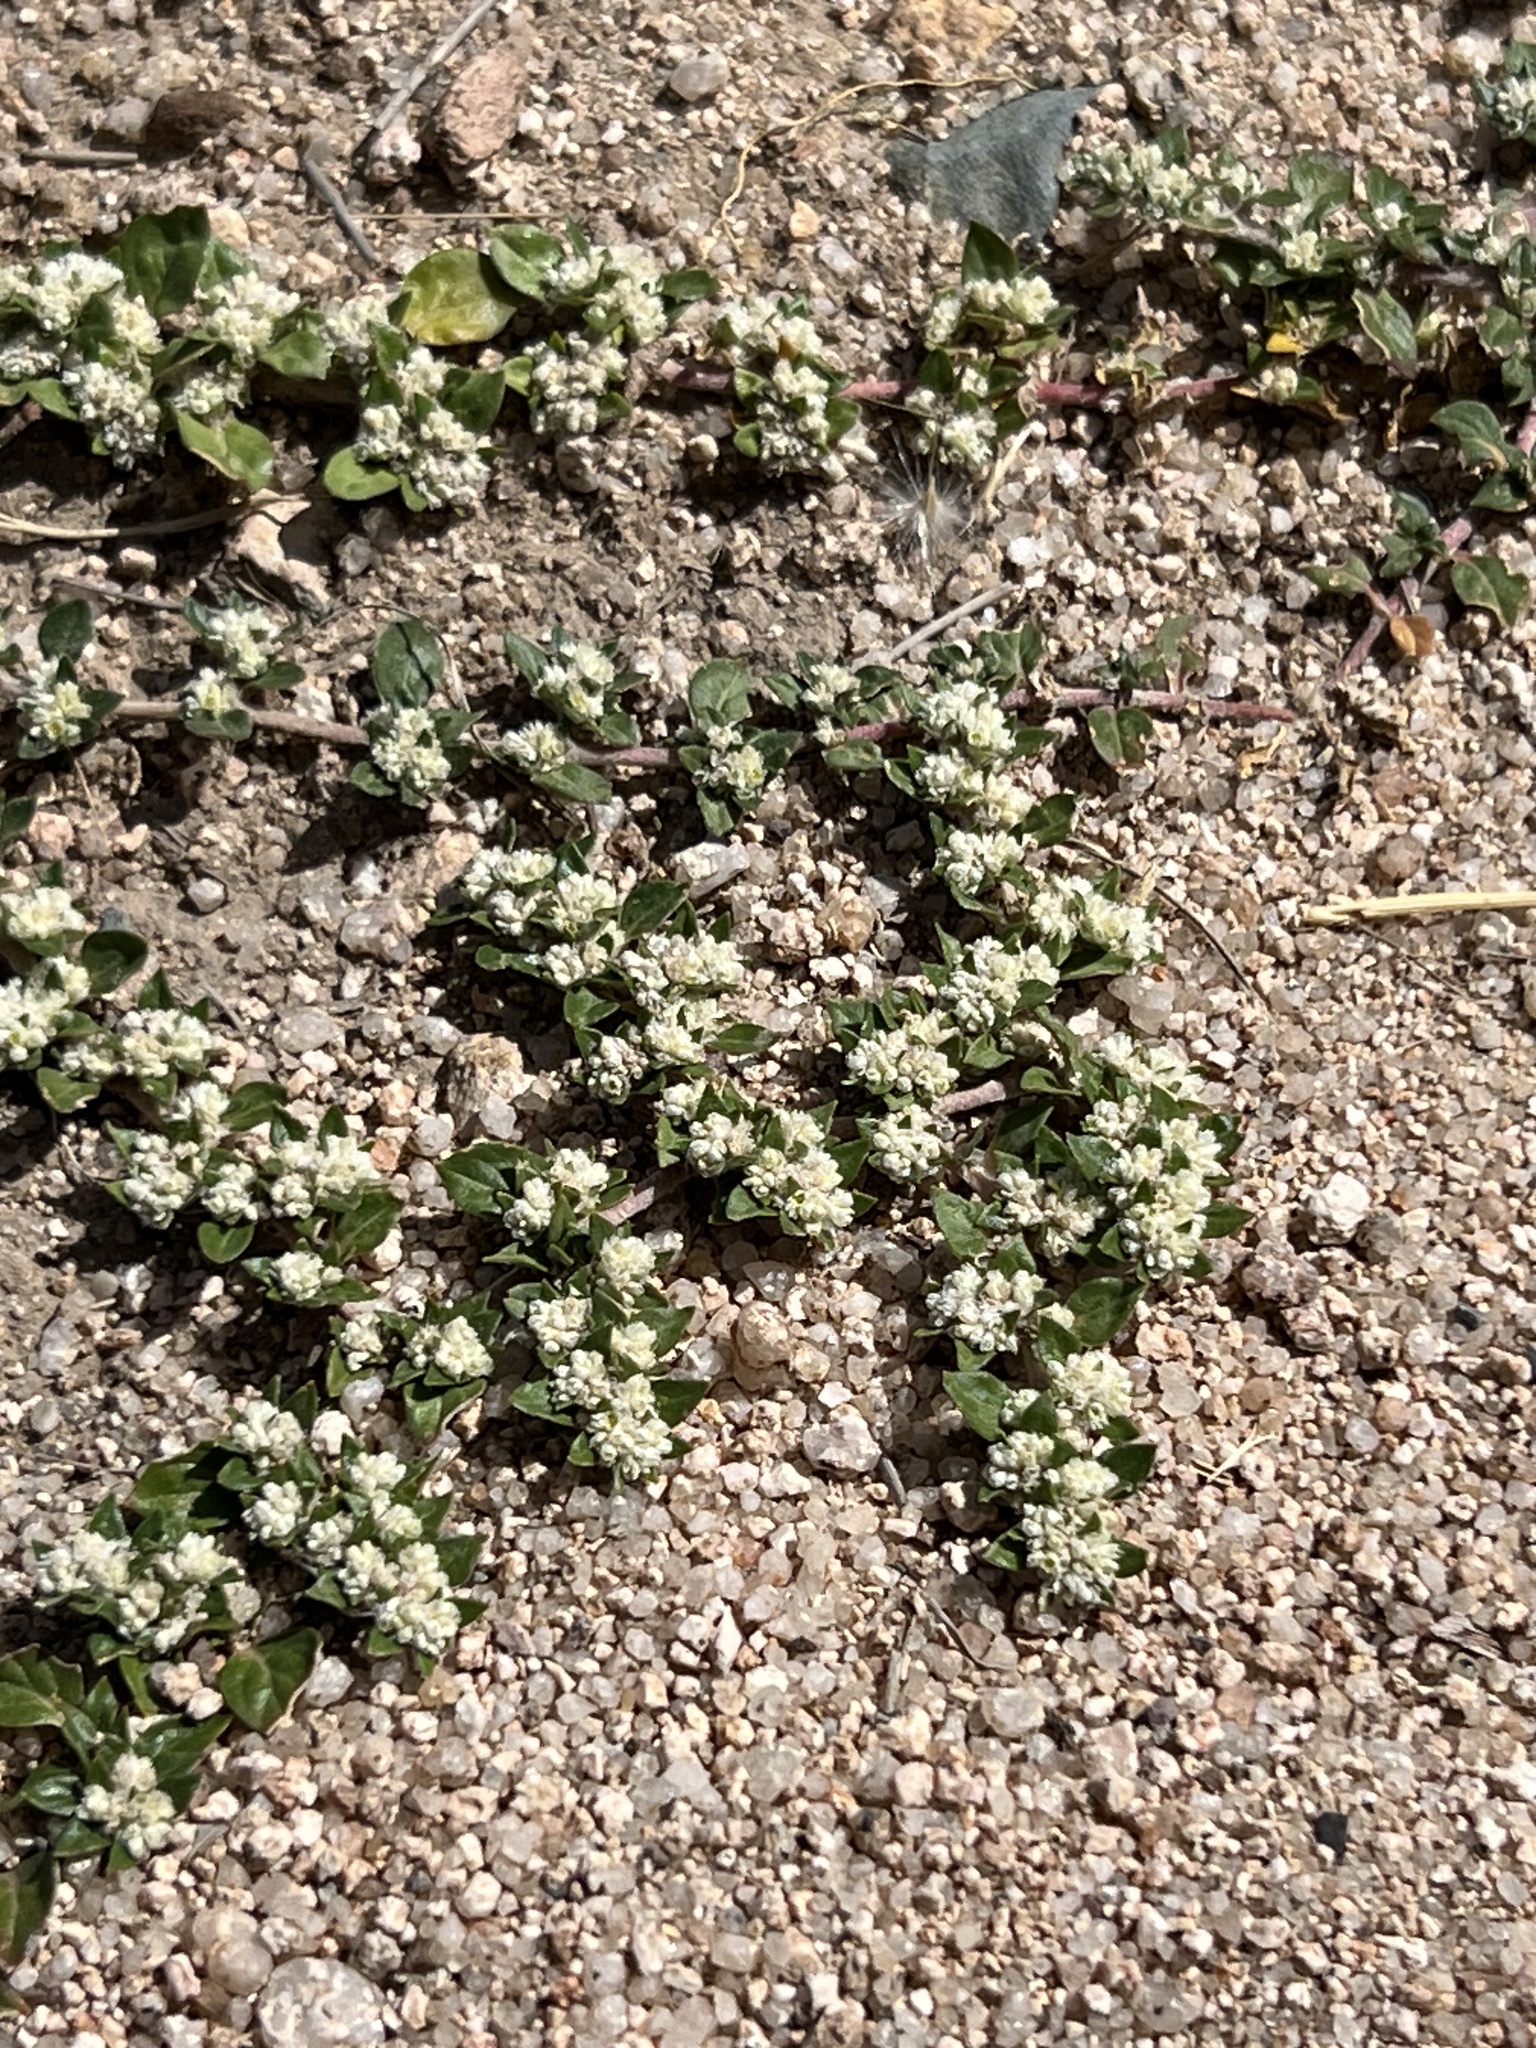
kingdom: Plantae
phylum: Tracheophyta
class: Magnoliopsida
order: Caryophyllales
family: Amaranthaceae
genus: Guilleminea
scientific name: Guilleminea densa
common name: Small matweed
